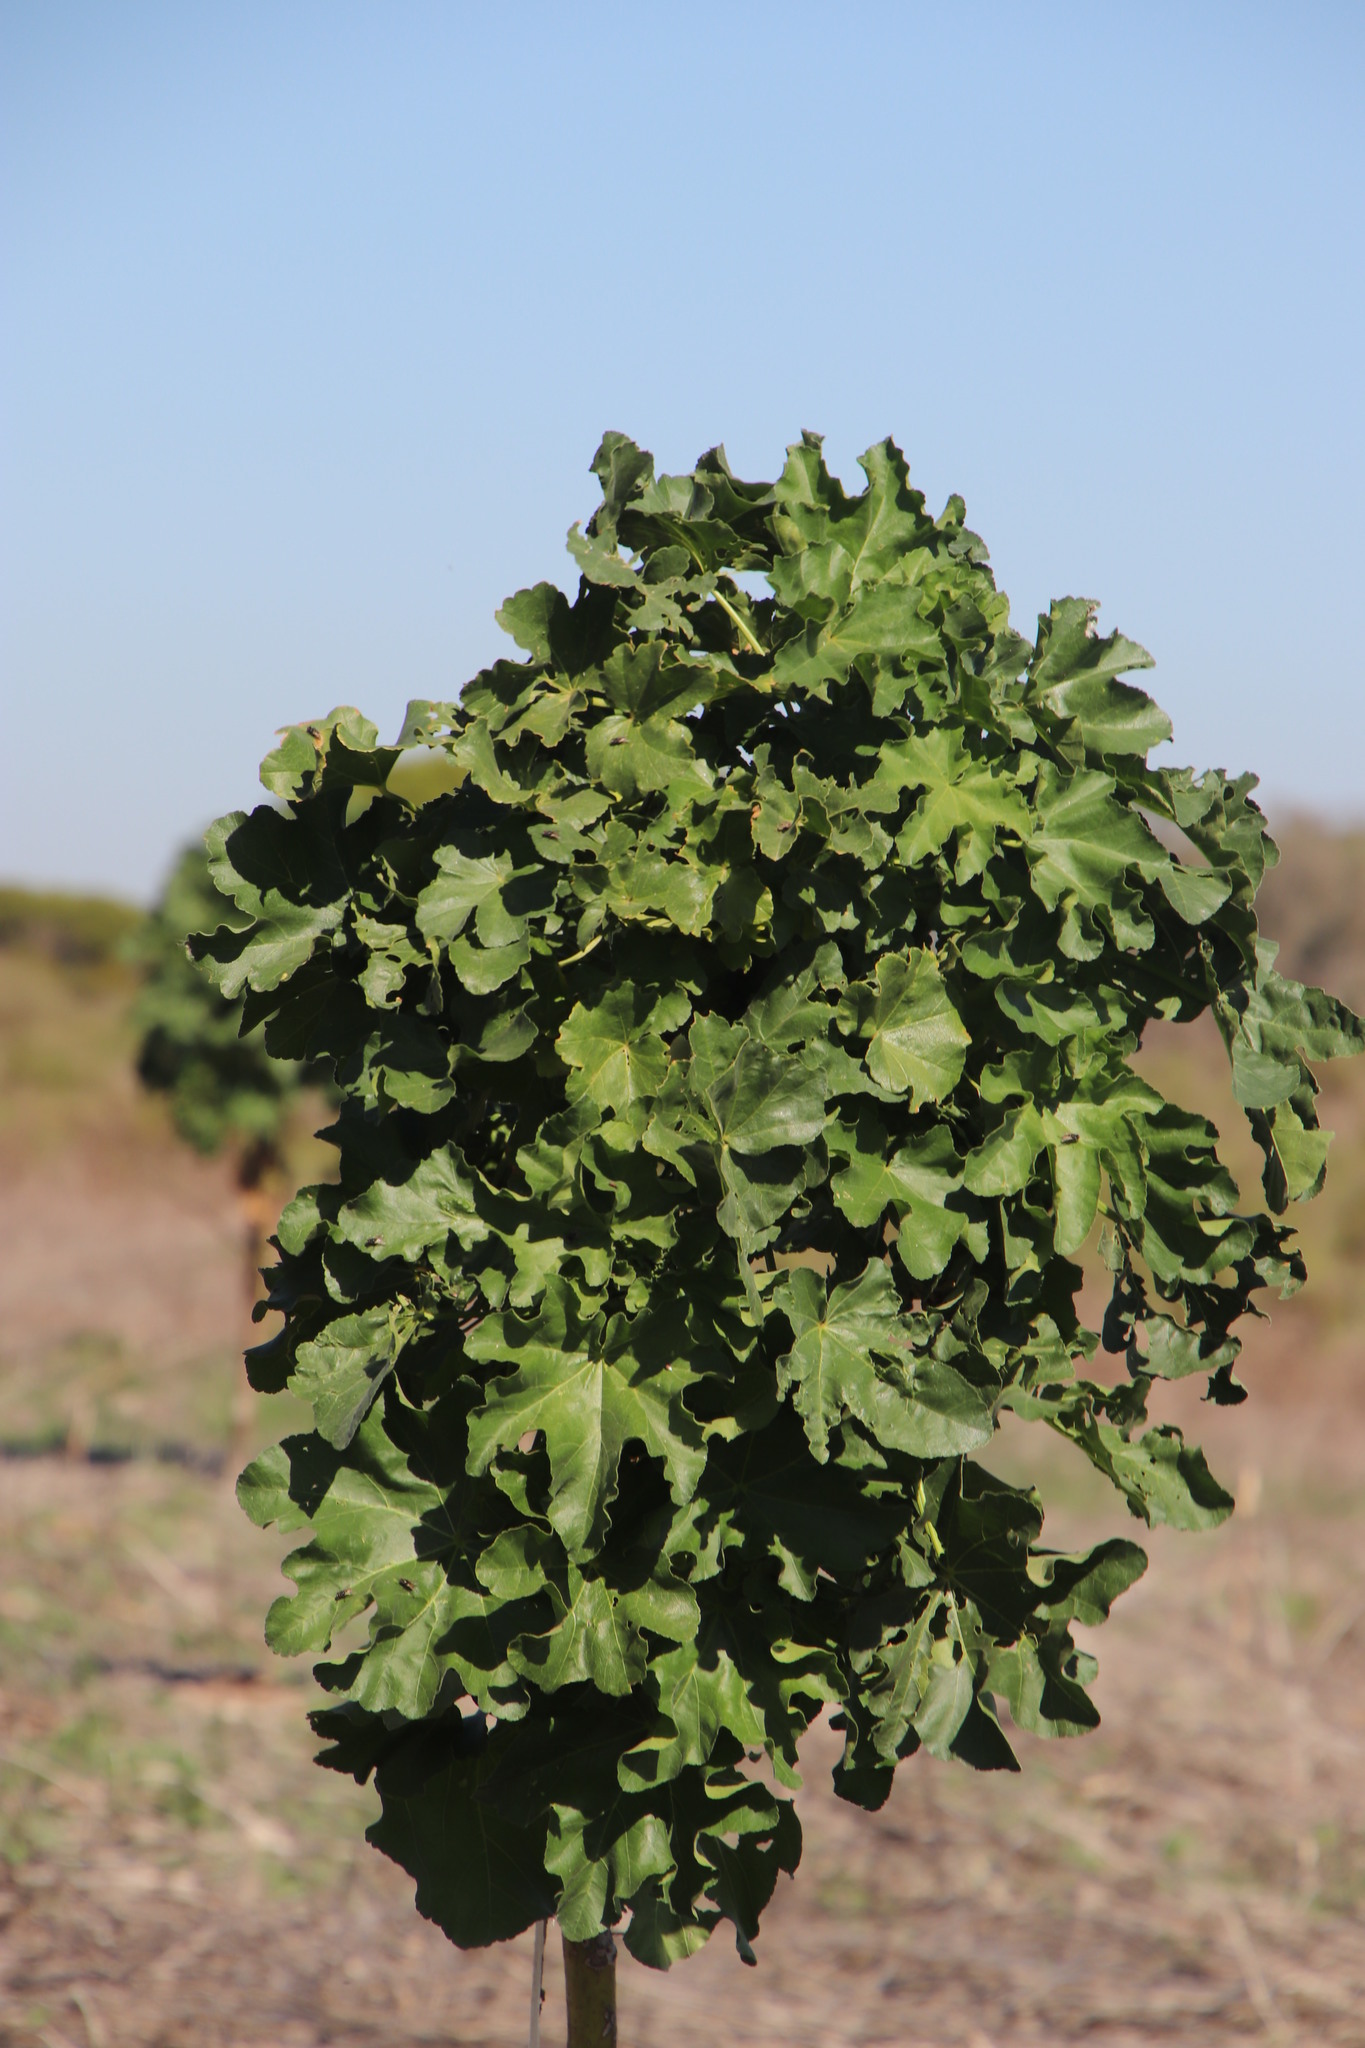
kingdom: Plantae
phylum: Tracheophyta
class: Magnoliopsida
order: Malvales
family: Malvaceae
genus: Malva
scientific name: Malva arborea
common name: Tree mallow
